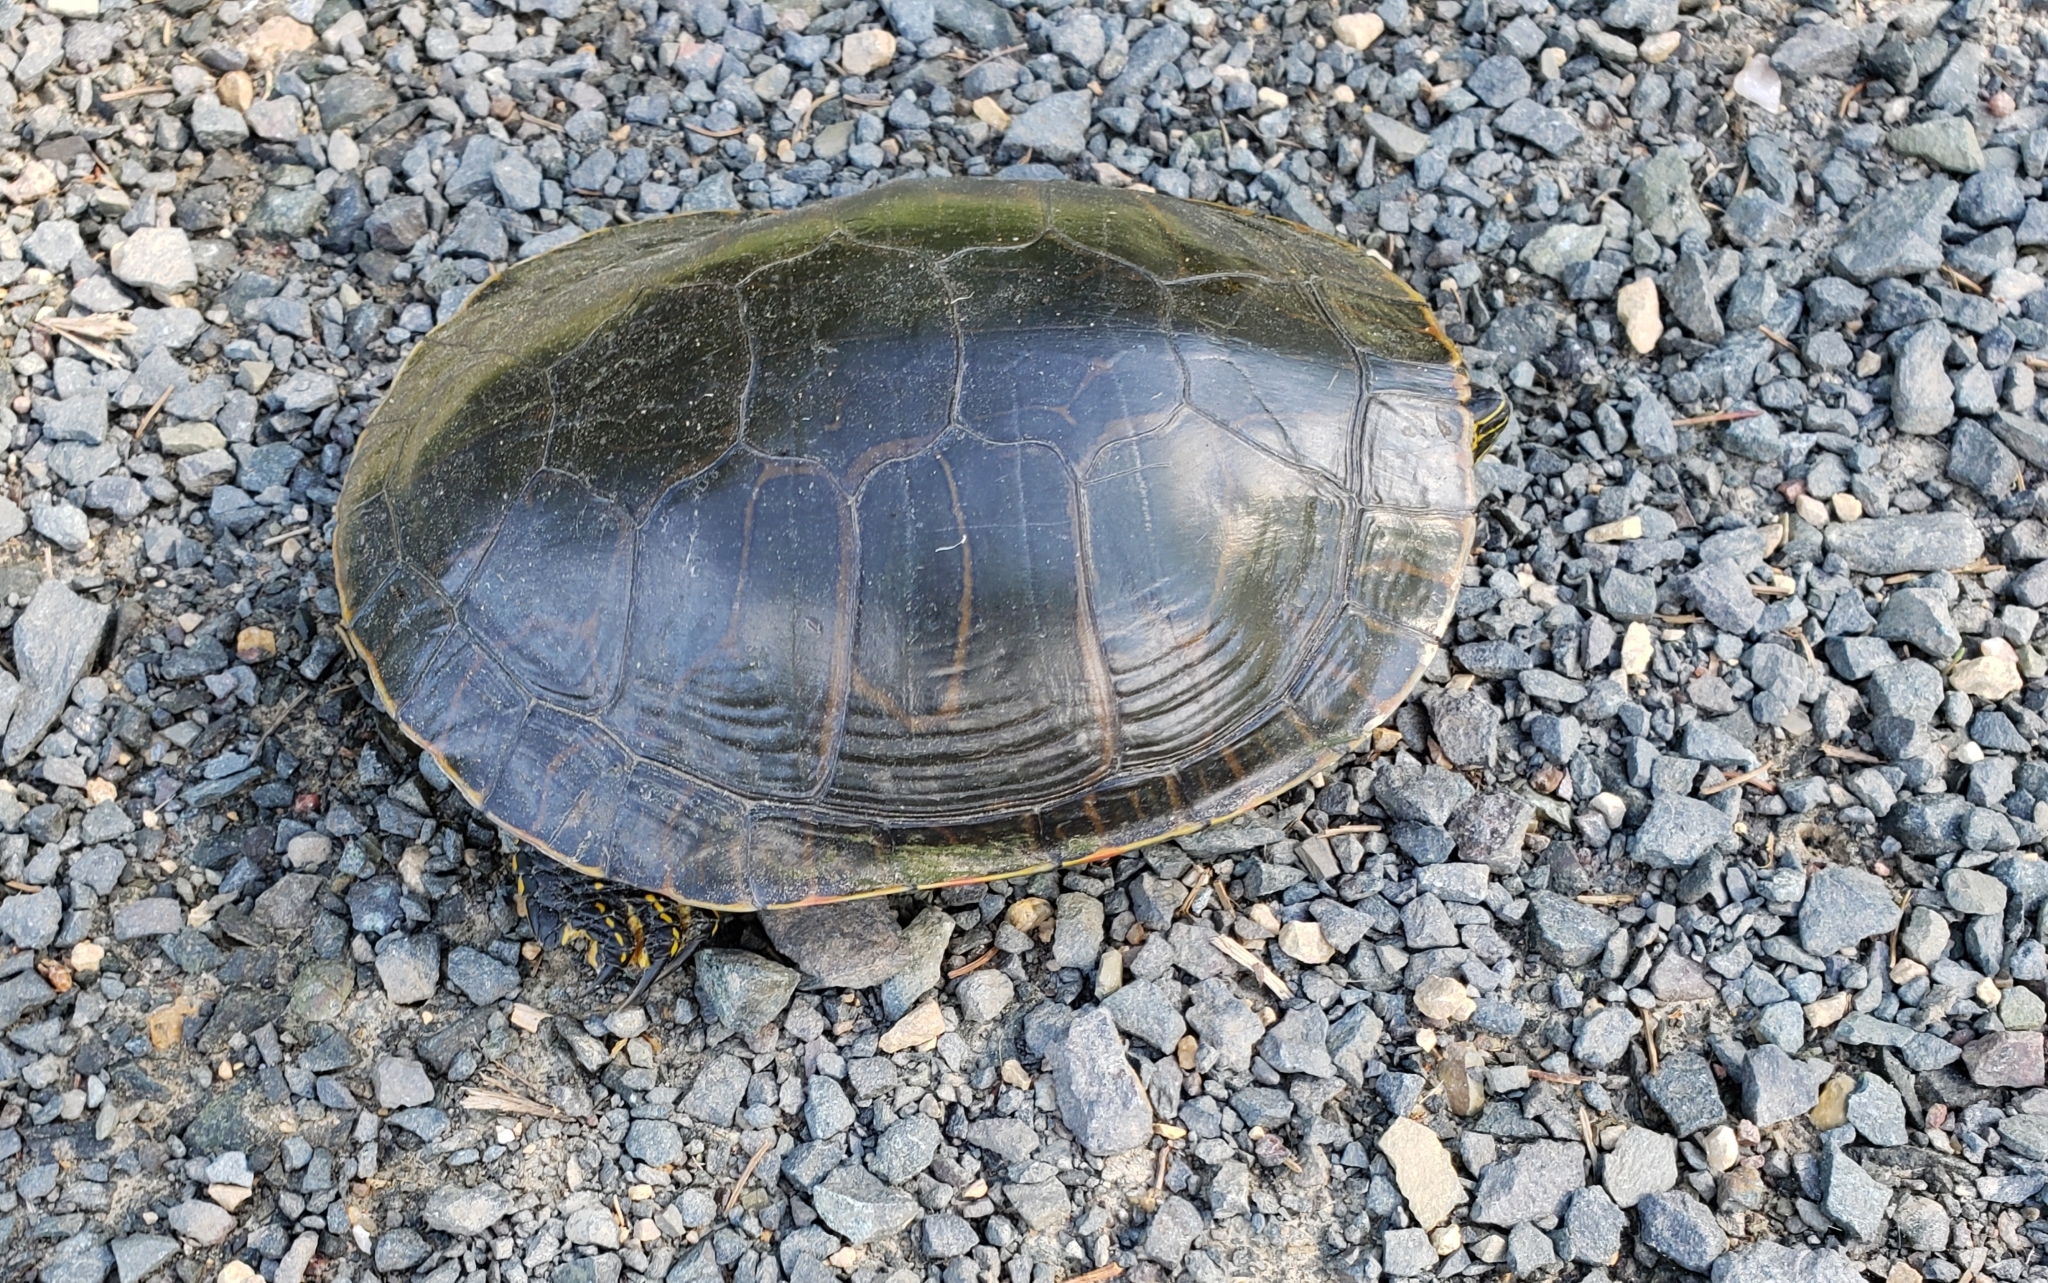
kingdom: Animalia
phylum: Chordata
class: Testudines
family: Emydidae
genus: Chrysemys
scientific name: Chrysemys picta
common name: Painted turtle
